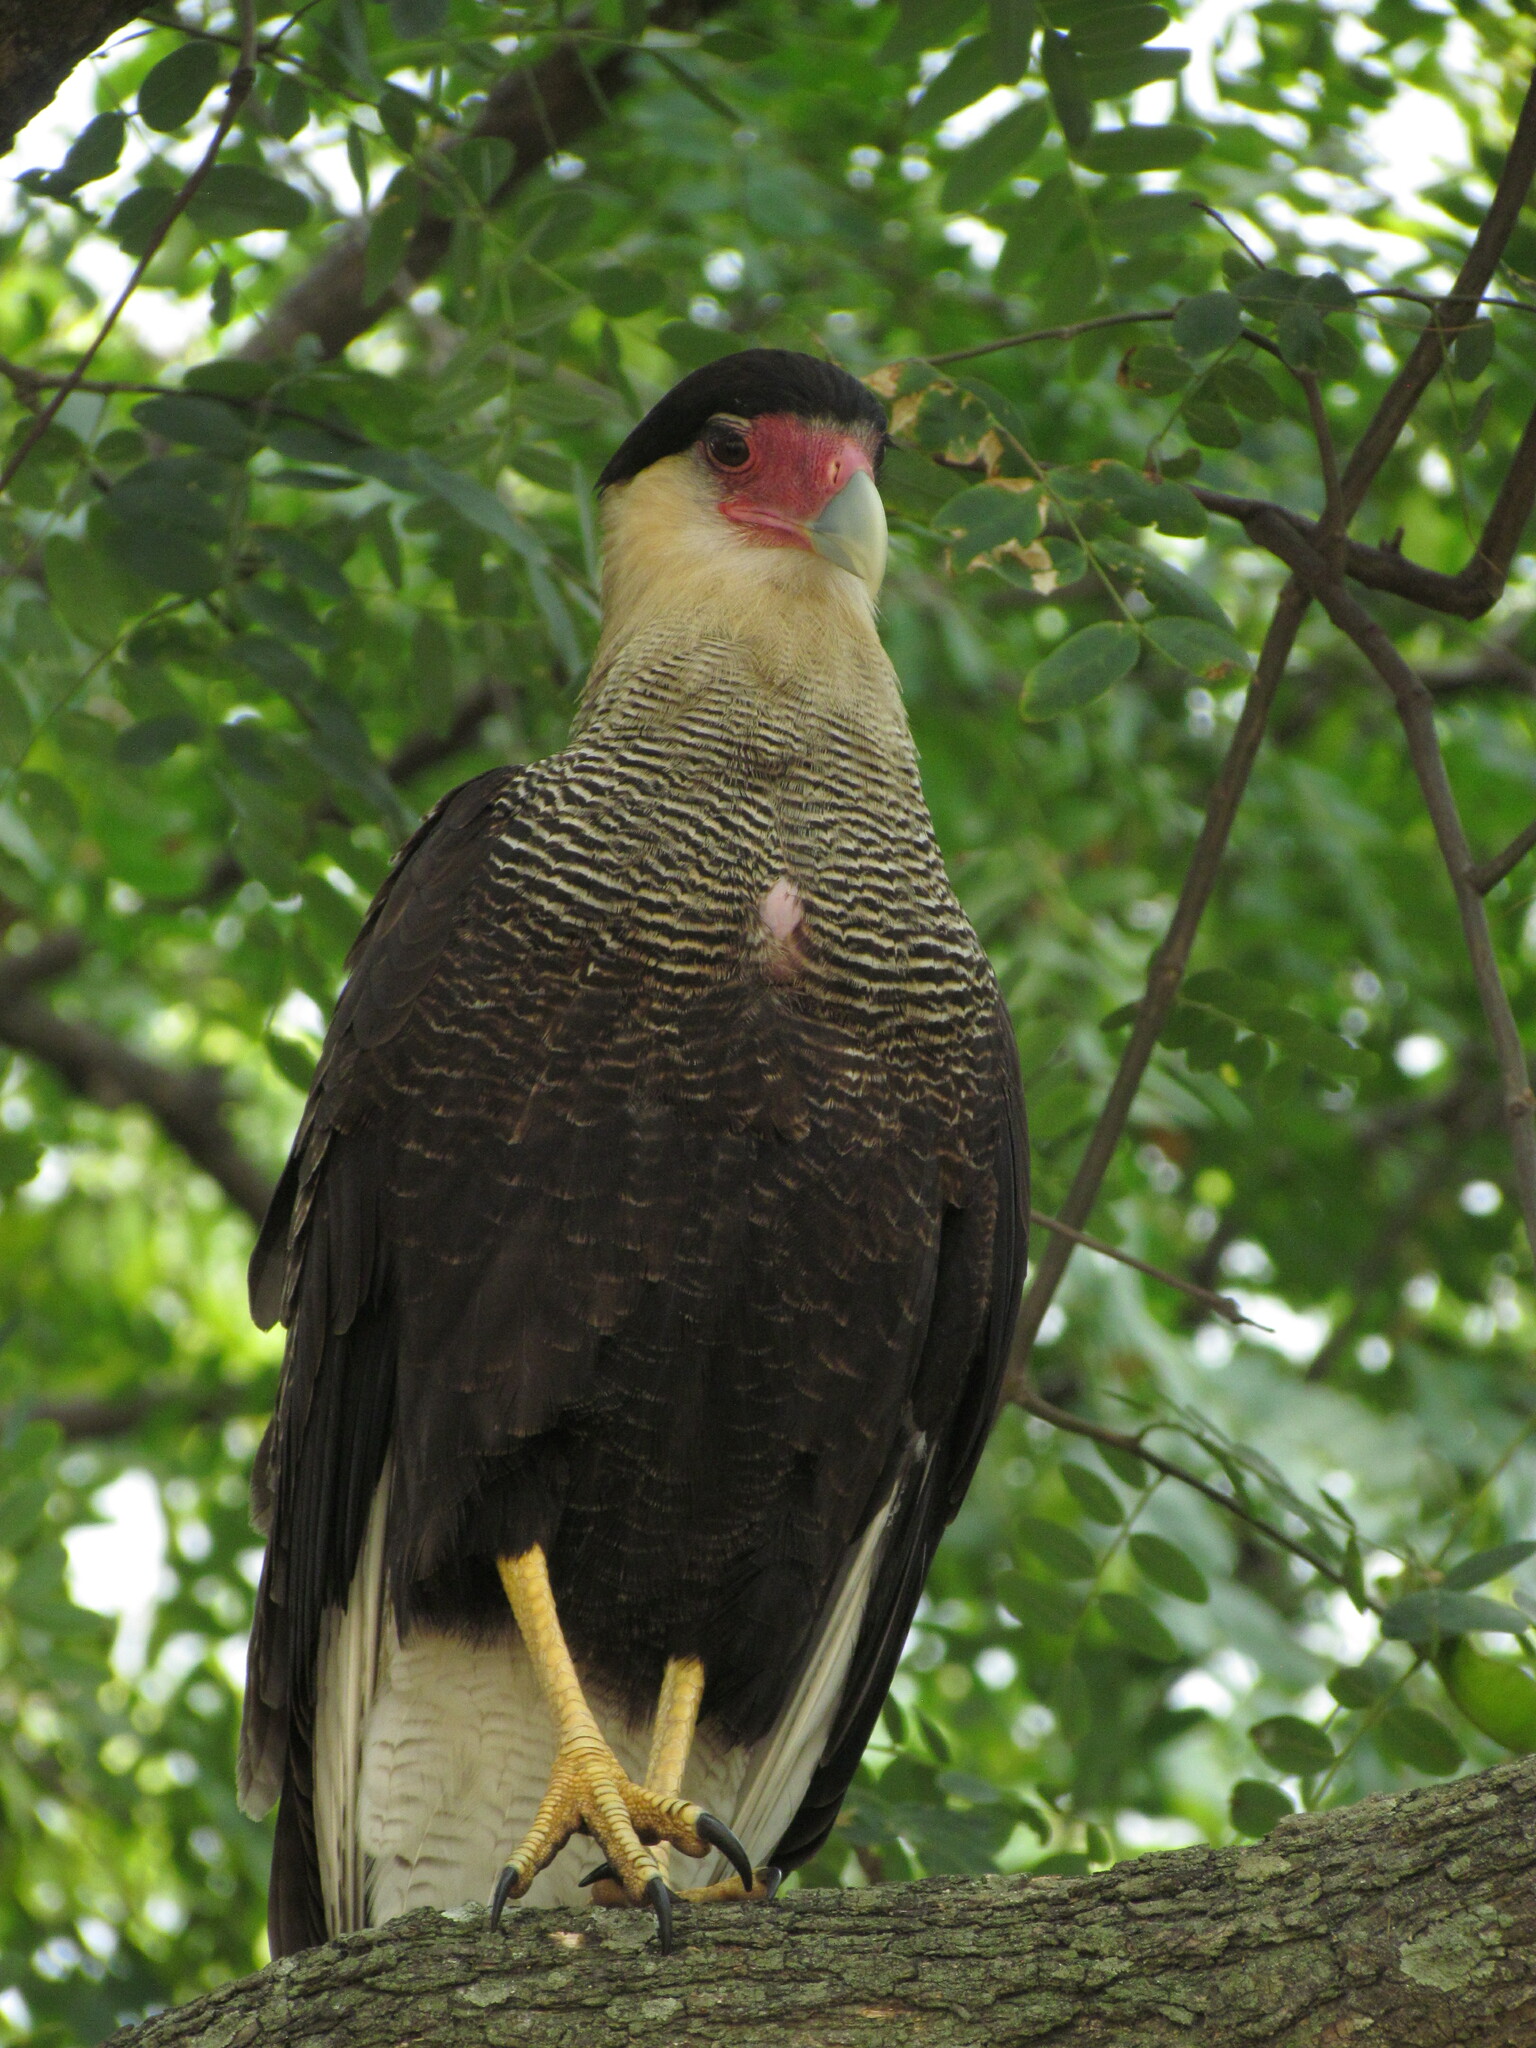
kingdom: Animalia
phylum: Chordata
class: Aves
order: Falconiformes
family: Falconidae
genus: Caracara
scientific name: Caracara plancus
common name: Southern caracara
